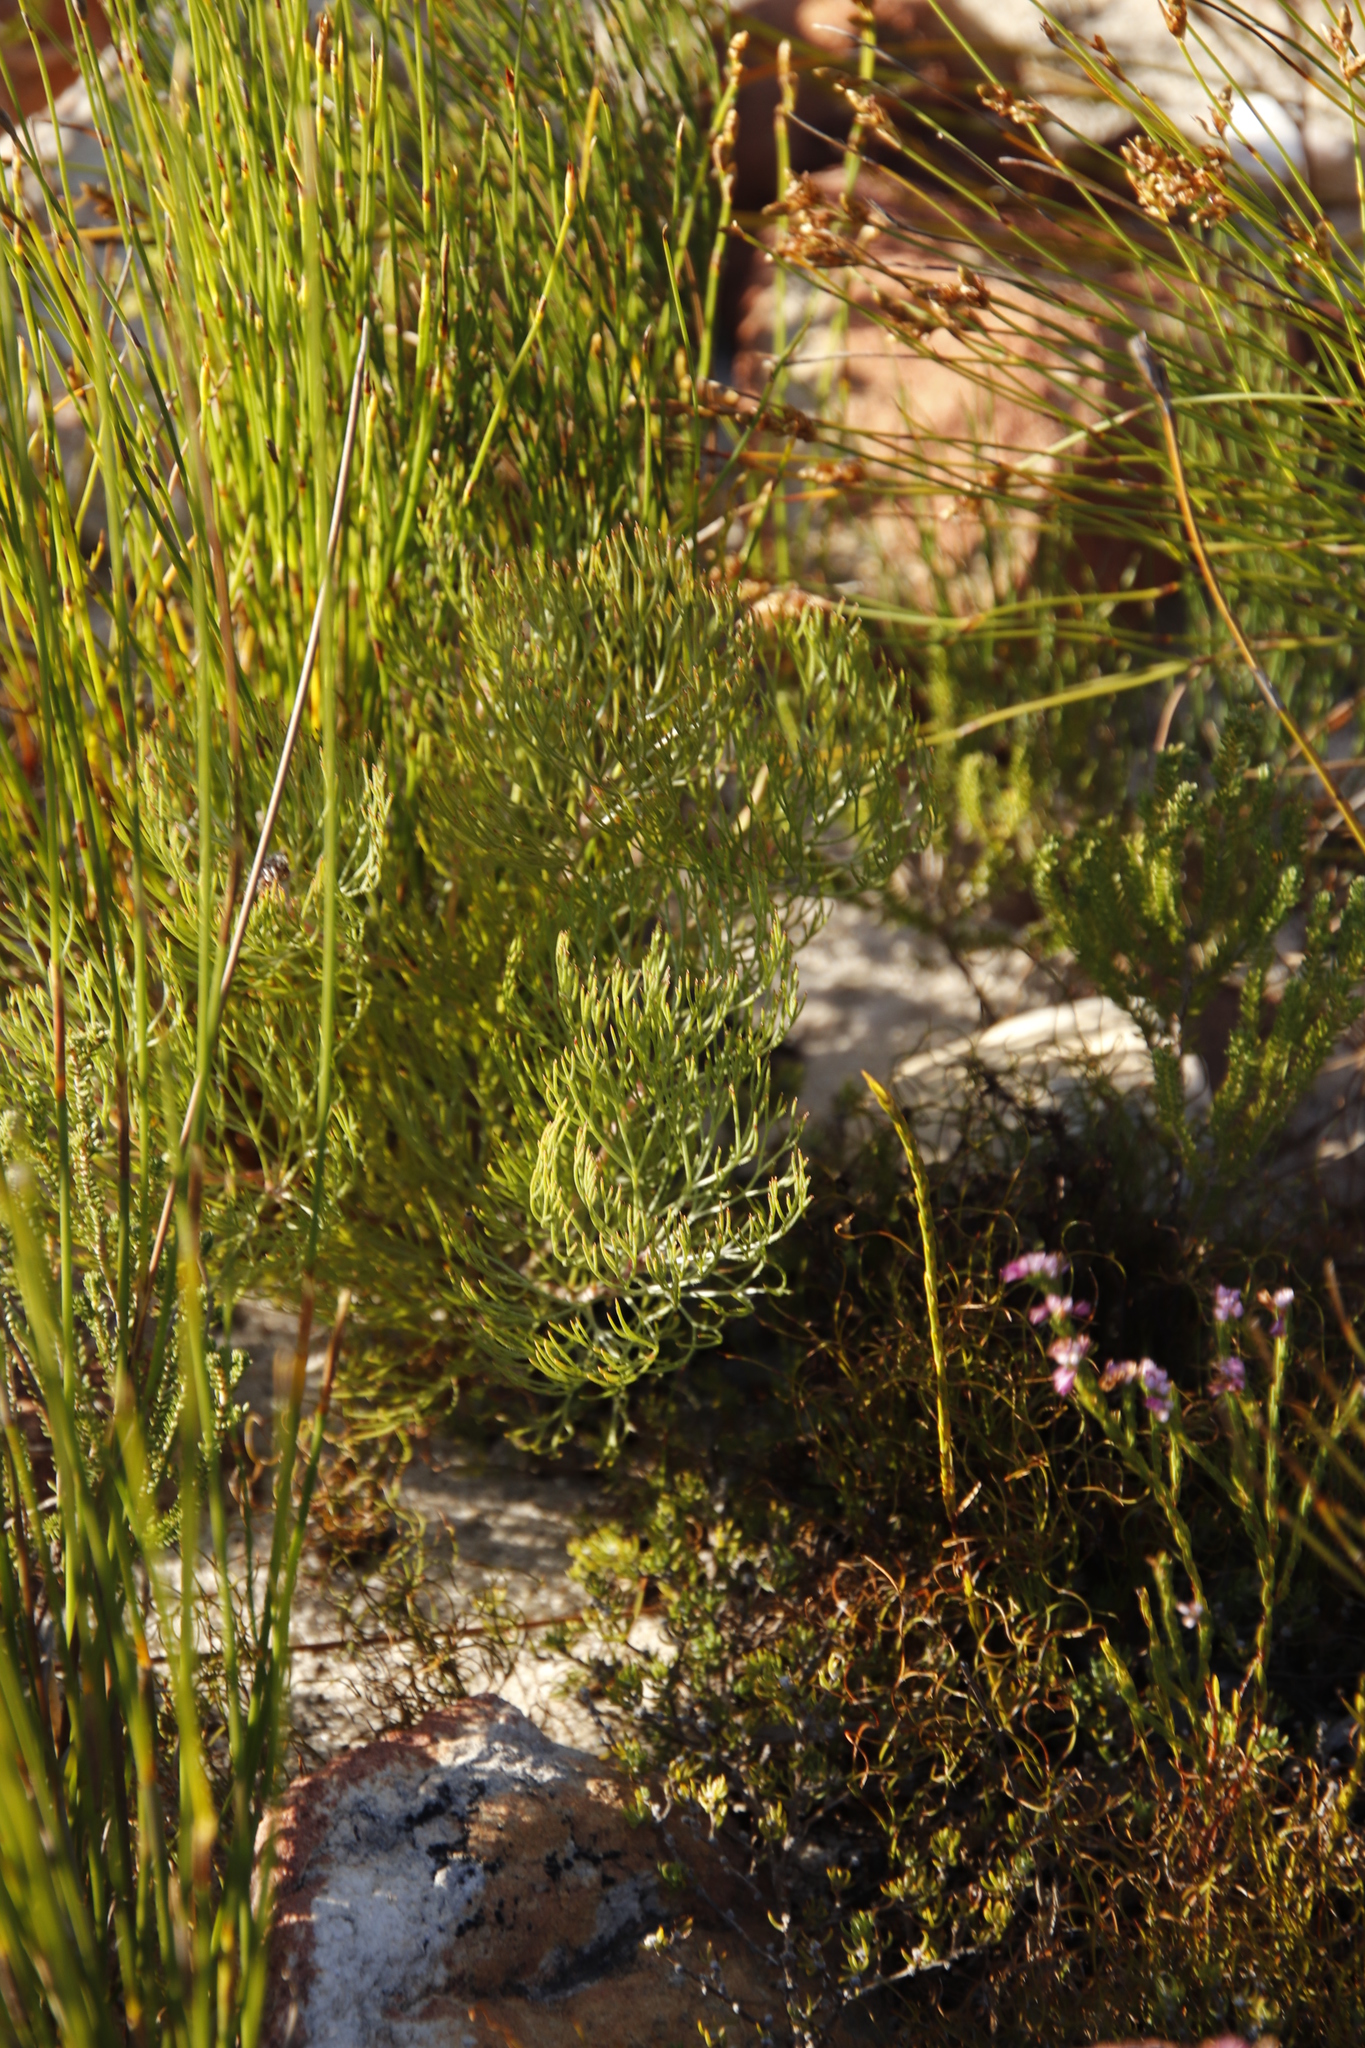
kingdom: Plantae
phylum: Tracheophyta
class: Magnoliopsida
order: Proteales
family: Proteaceae
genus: Serruria
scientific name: Serruria fasciflora
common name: Common pin spiderhead
